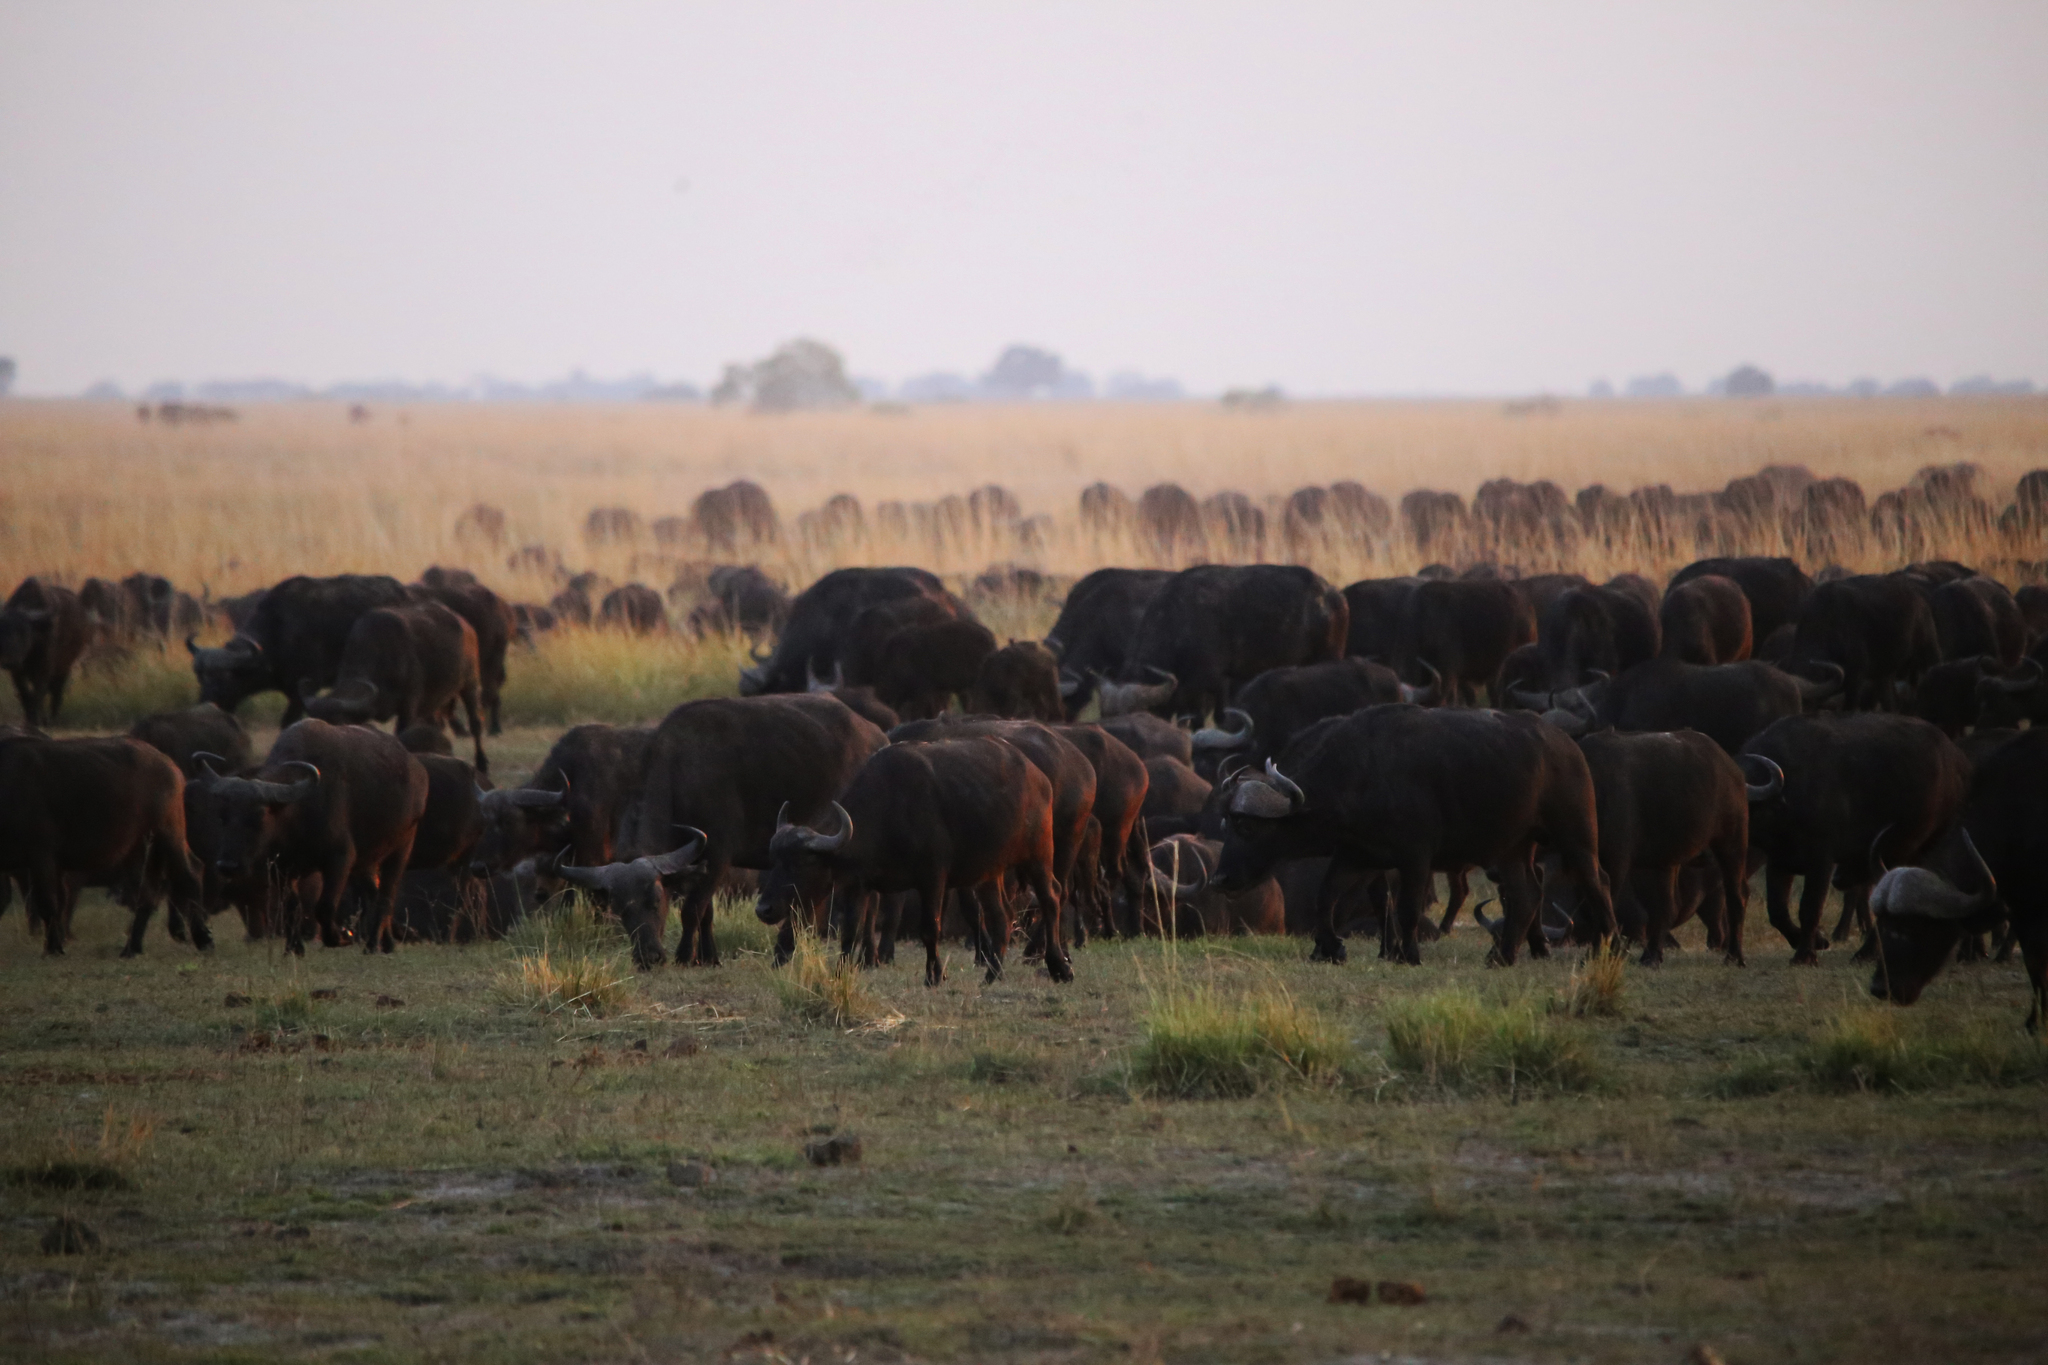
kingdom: Animalia
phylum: Chordata
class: Mammalia
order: Artiodactyla
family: Bovidae
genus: Syncerus
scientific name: Syncerus caffer
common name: African buffalo
